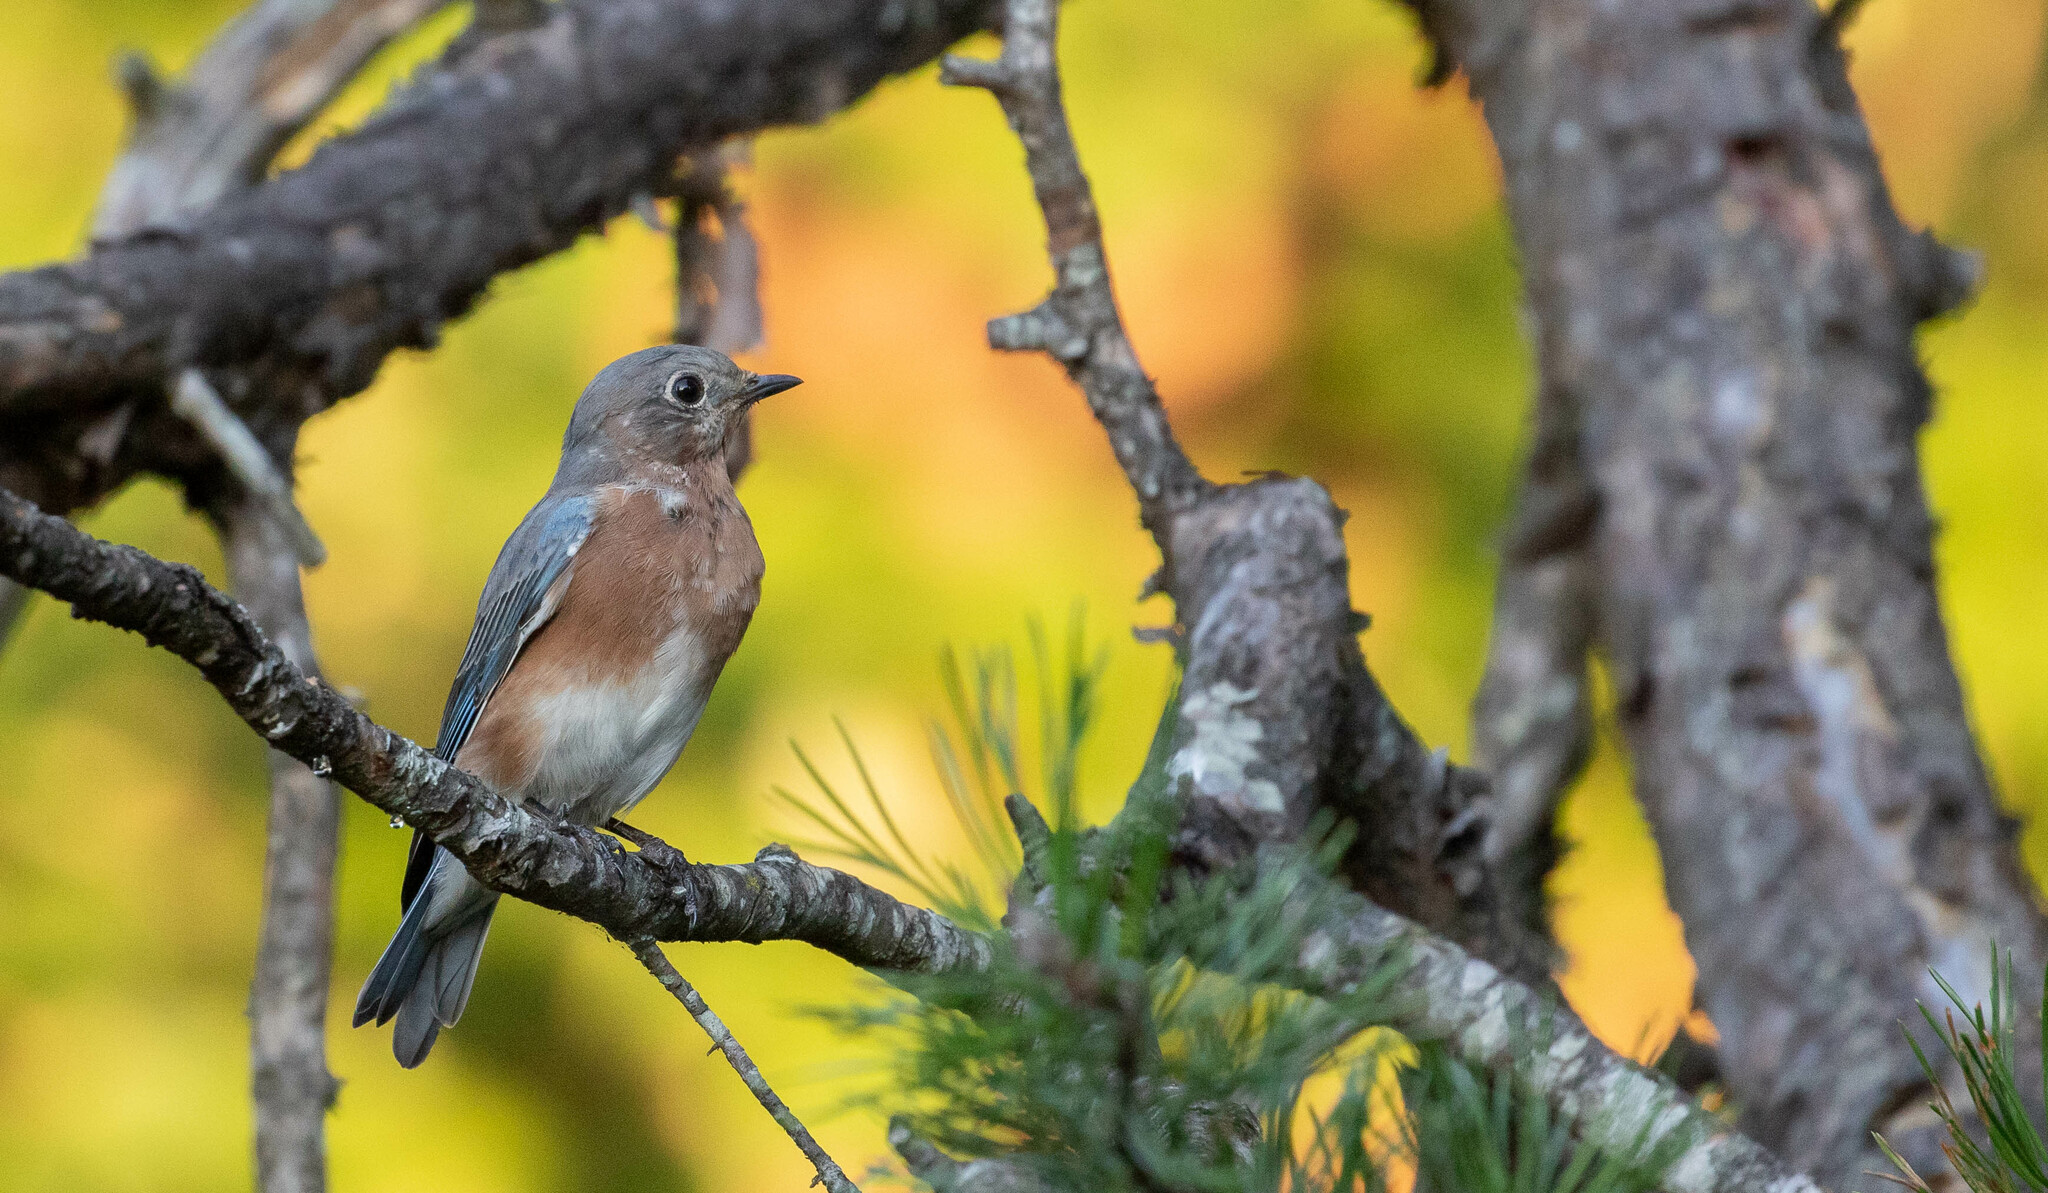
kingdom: Animalia
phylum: Chordata
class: Aves
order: Passeriformes
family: Turdidae
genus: Sialia
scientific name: Sialia sialis
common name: Eastern bluebird
